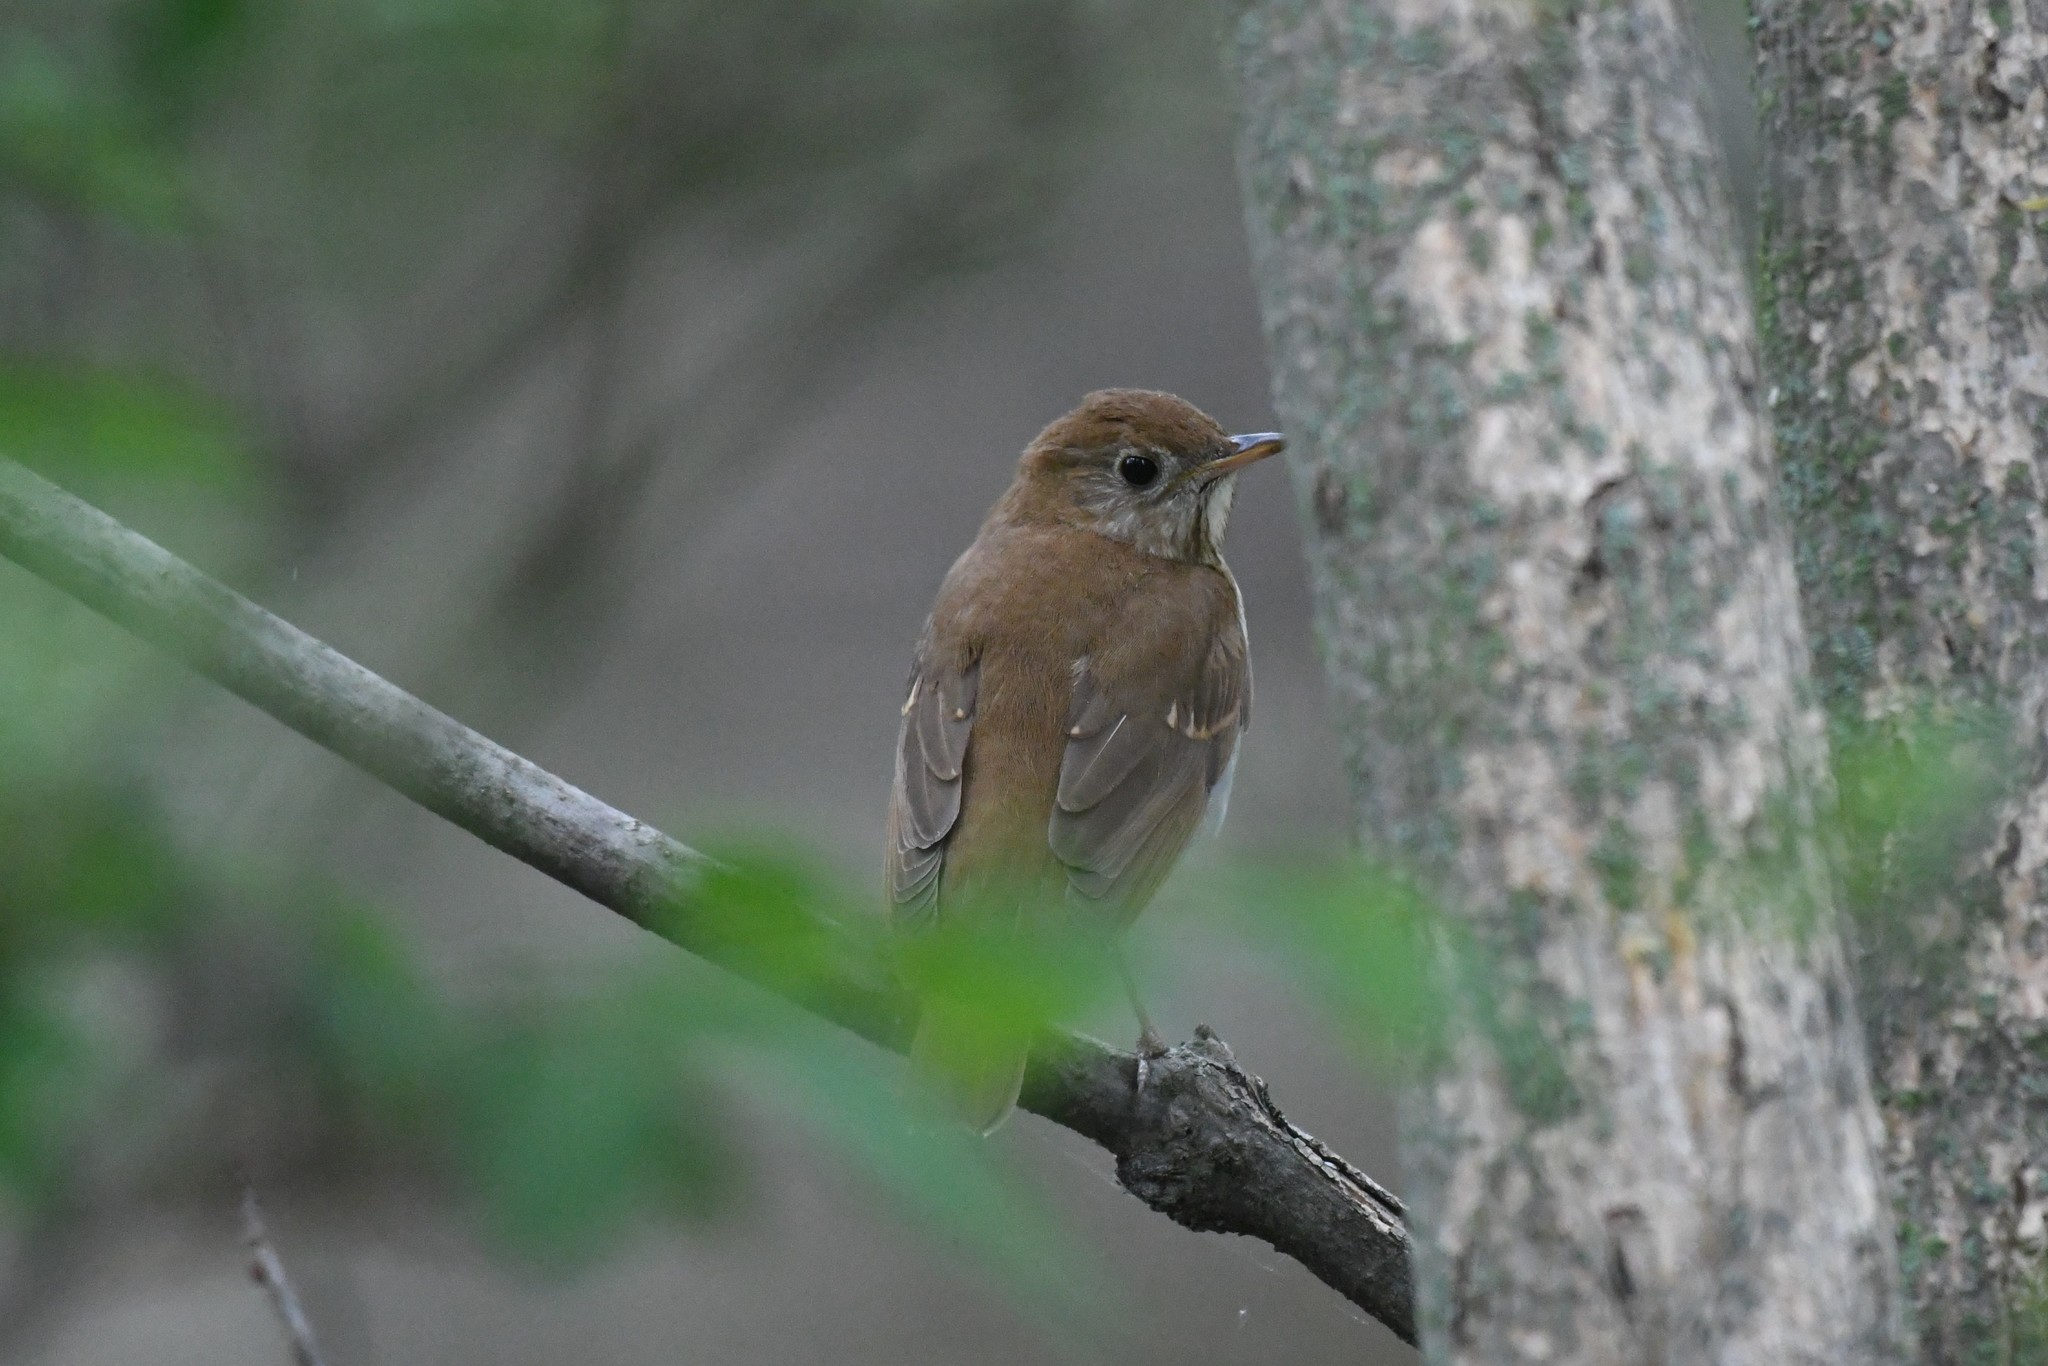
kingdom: Animalia
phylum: Chordata
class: Aves
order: Passeriformes
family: Turdidae
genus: Catharus
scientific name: Catharus fuscescens
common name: Veery
